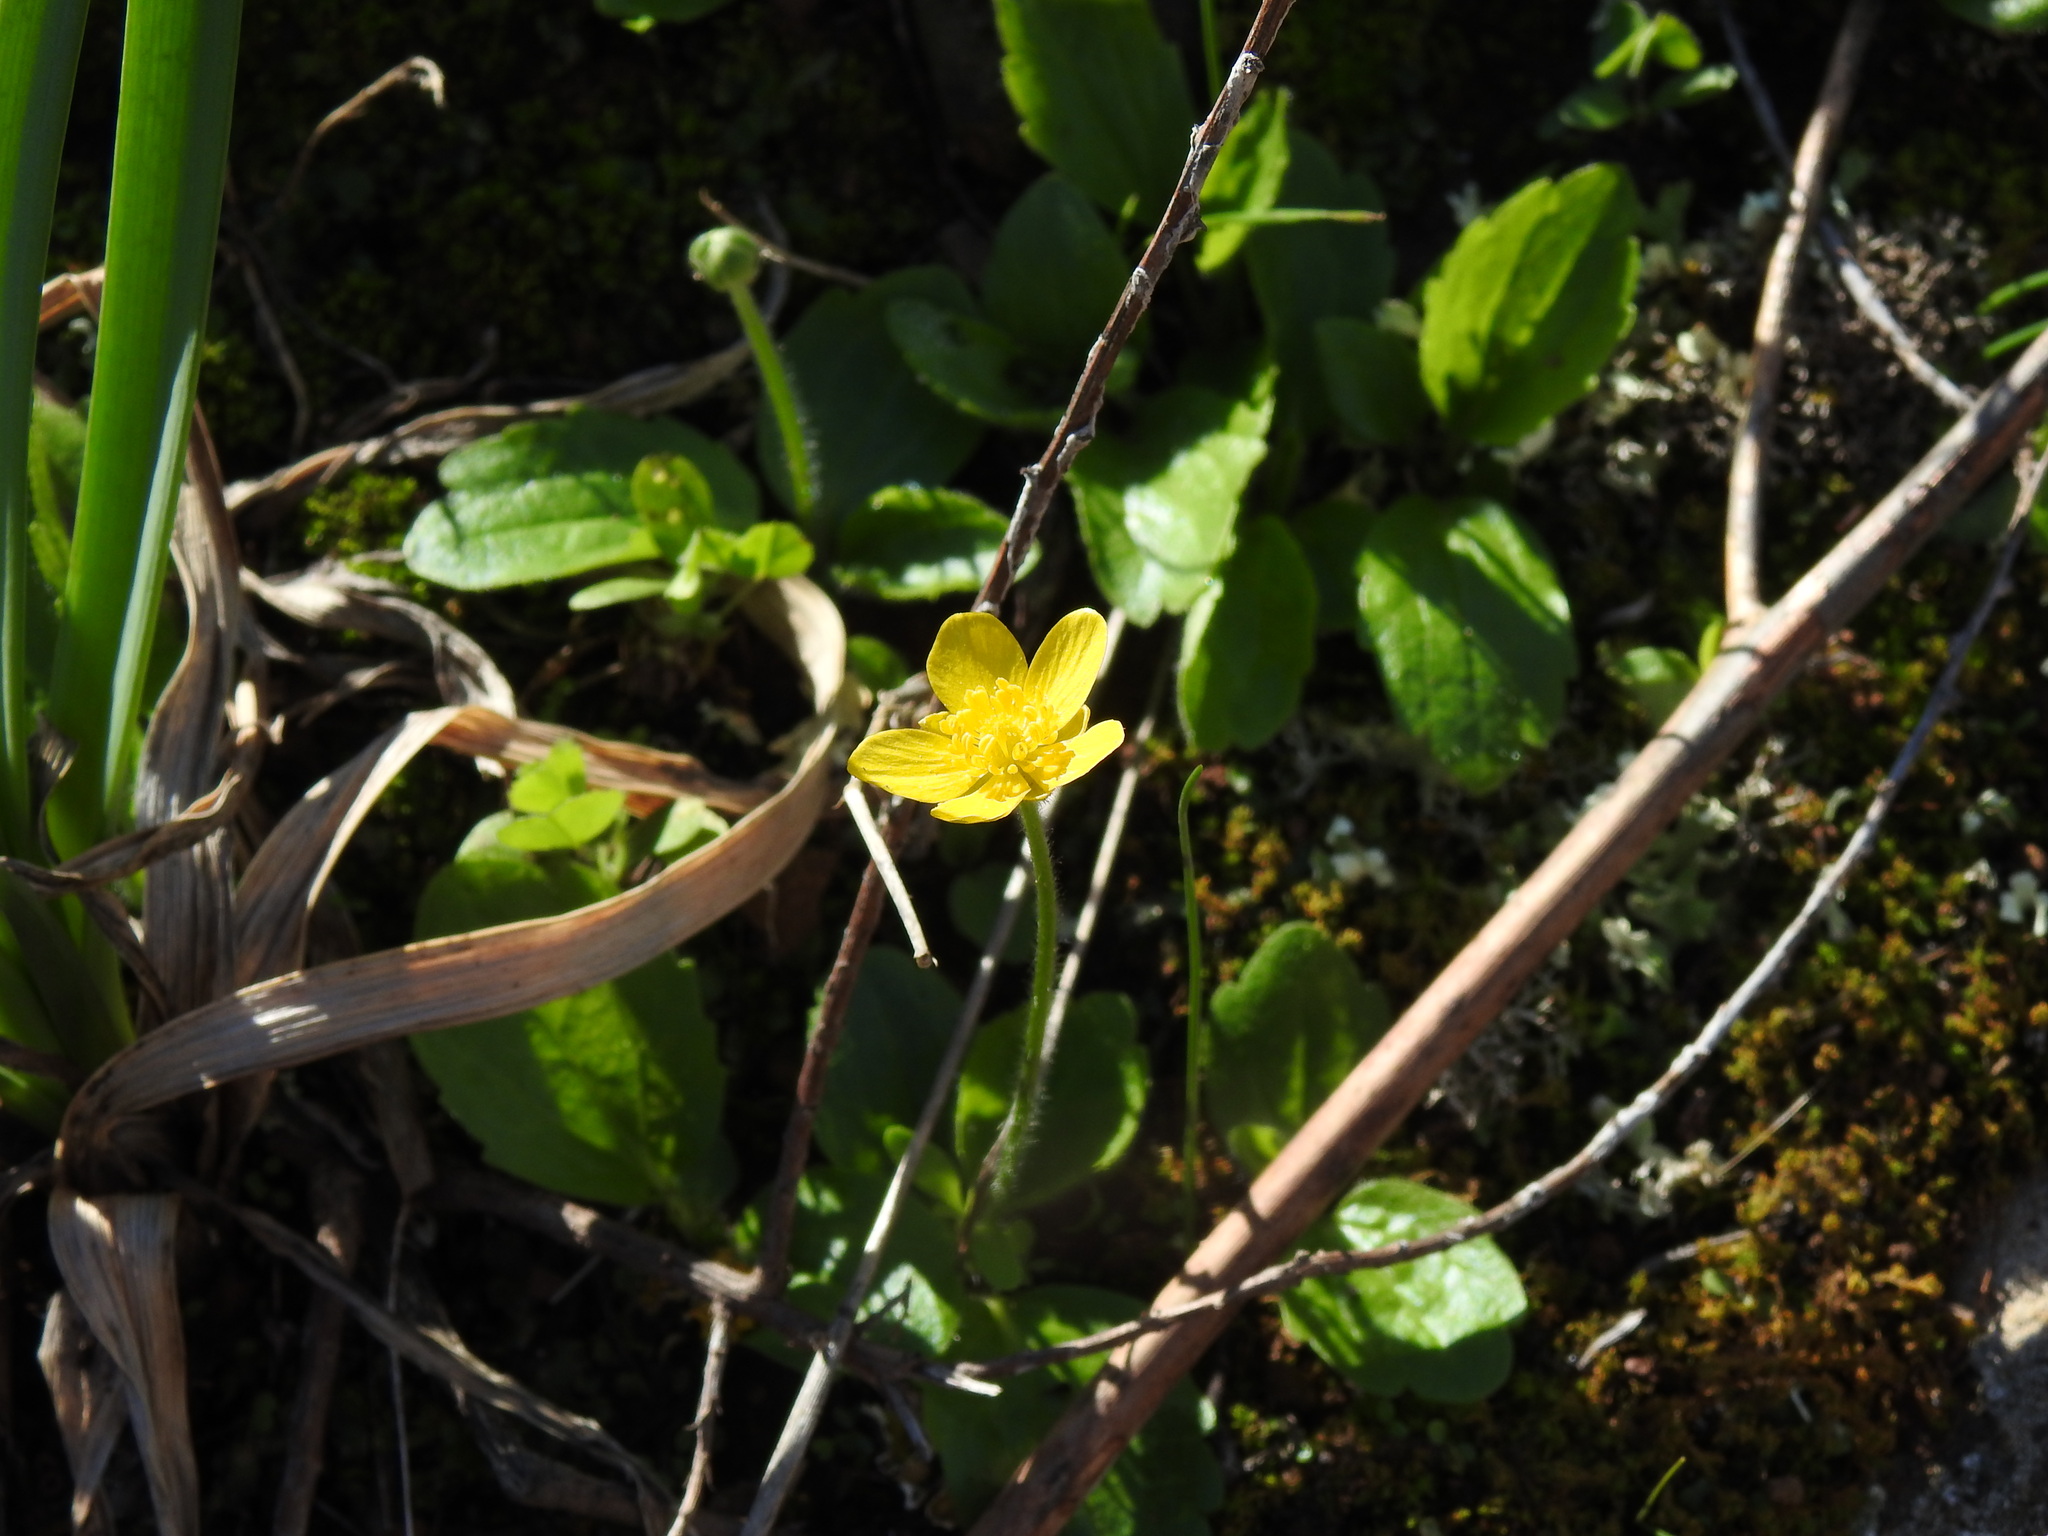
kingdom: Plantae
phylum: Tracheophyta
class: Magnoliopsida
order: Ranunculales
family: Ranunculaceae
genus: Ranunculus
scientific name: Ranunculus bullatus
